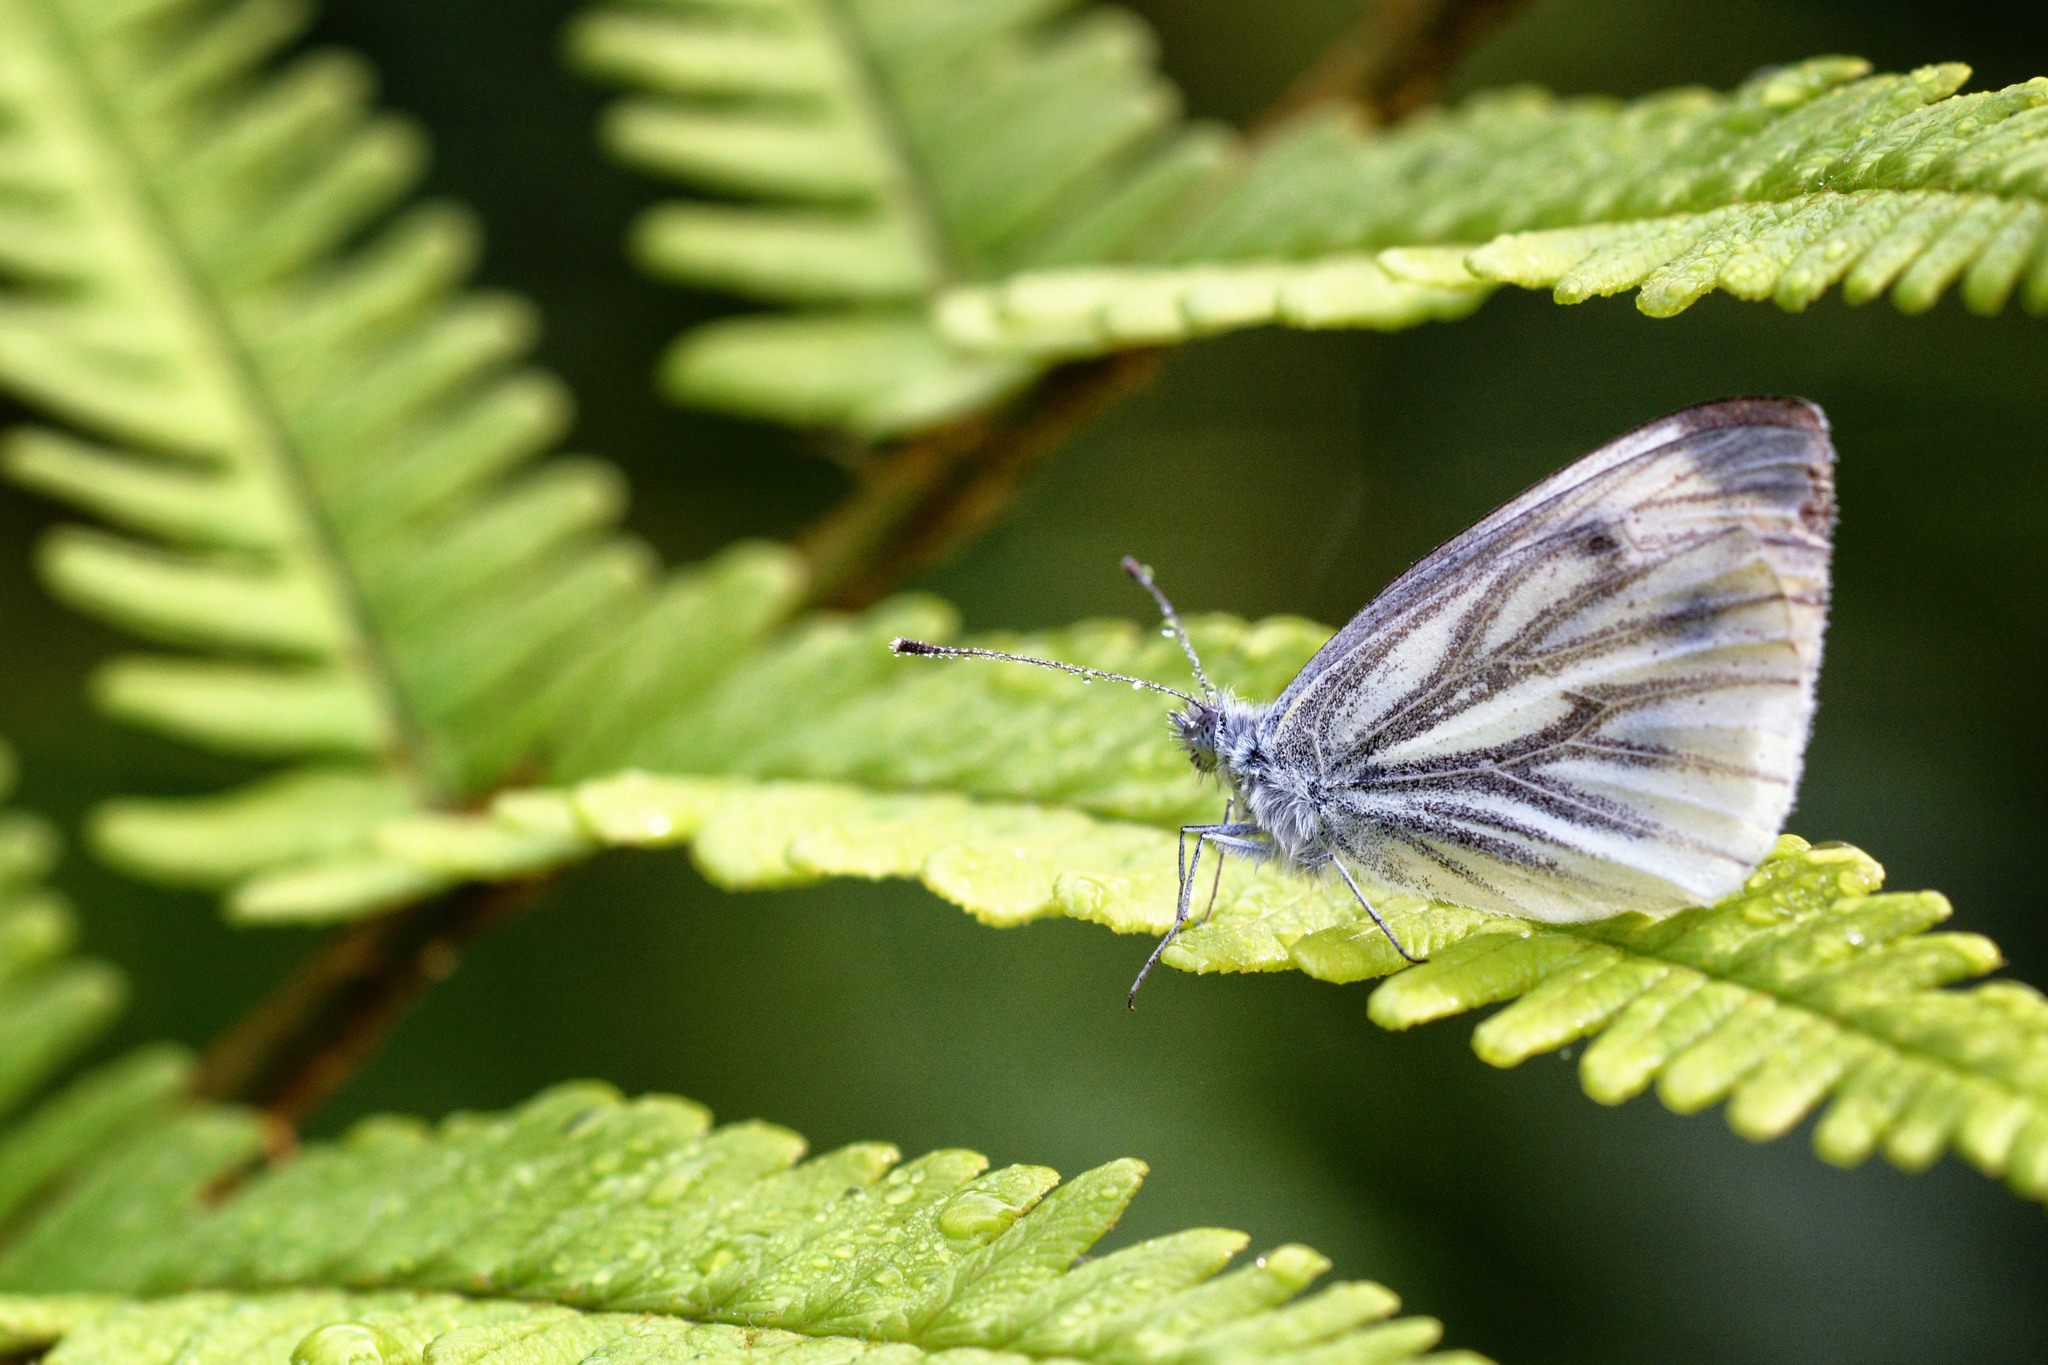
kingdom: Animalia
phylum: Arthropoda
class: Insecta
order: Lepidoptera
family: Pieridae
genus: Pieris
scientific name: Pieris napi
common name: Green-veined white
